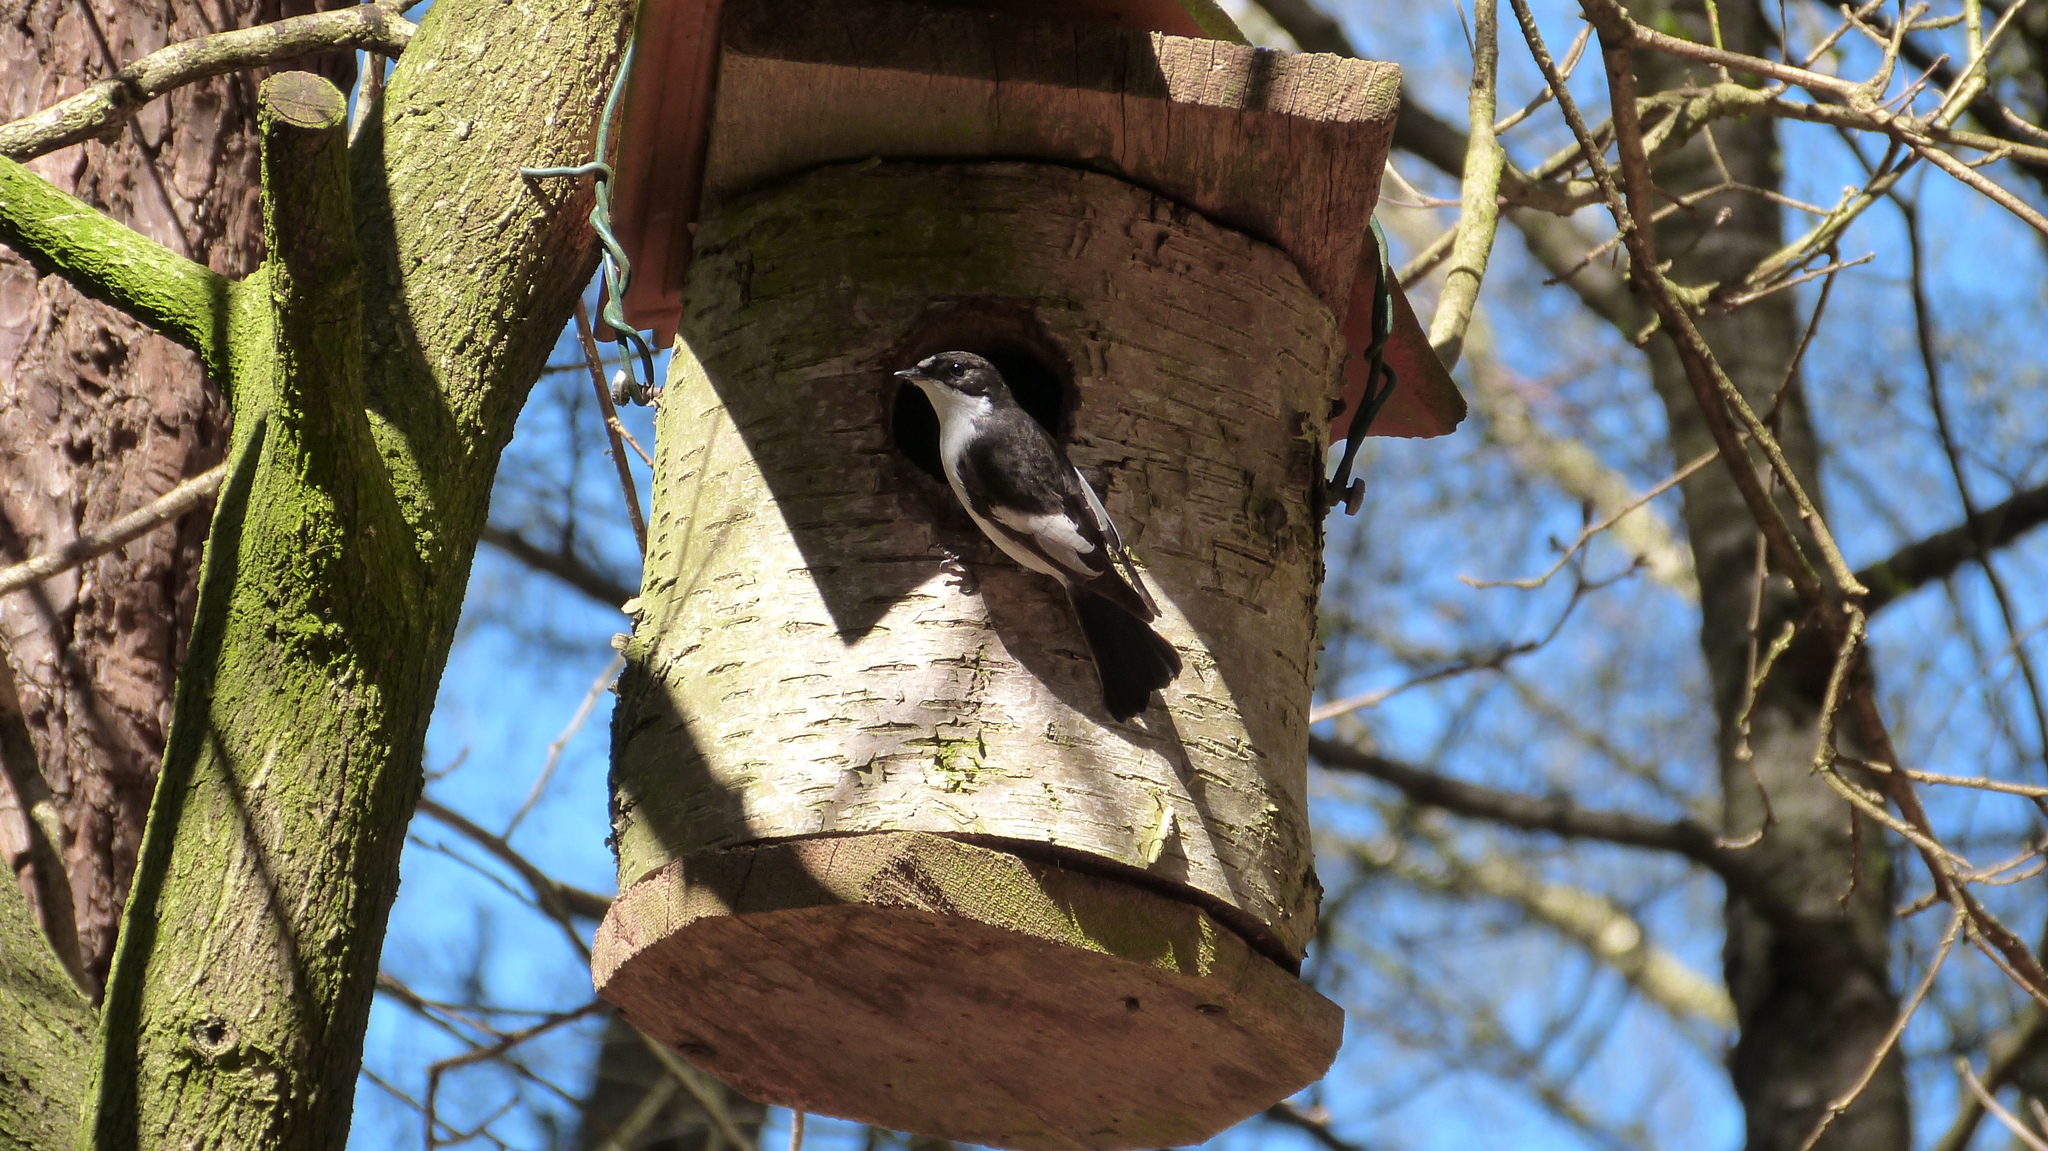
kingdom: Animalia
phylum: Chordata
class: Aves
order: Passeriformes
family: Muscicapidae
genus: Ficedula
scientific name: Ficedula hypoleuca
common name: European pied flycatcher
